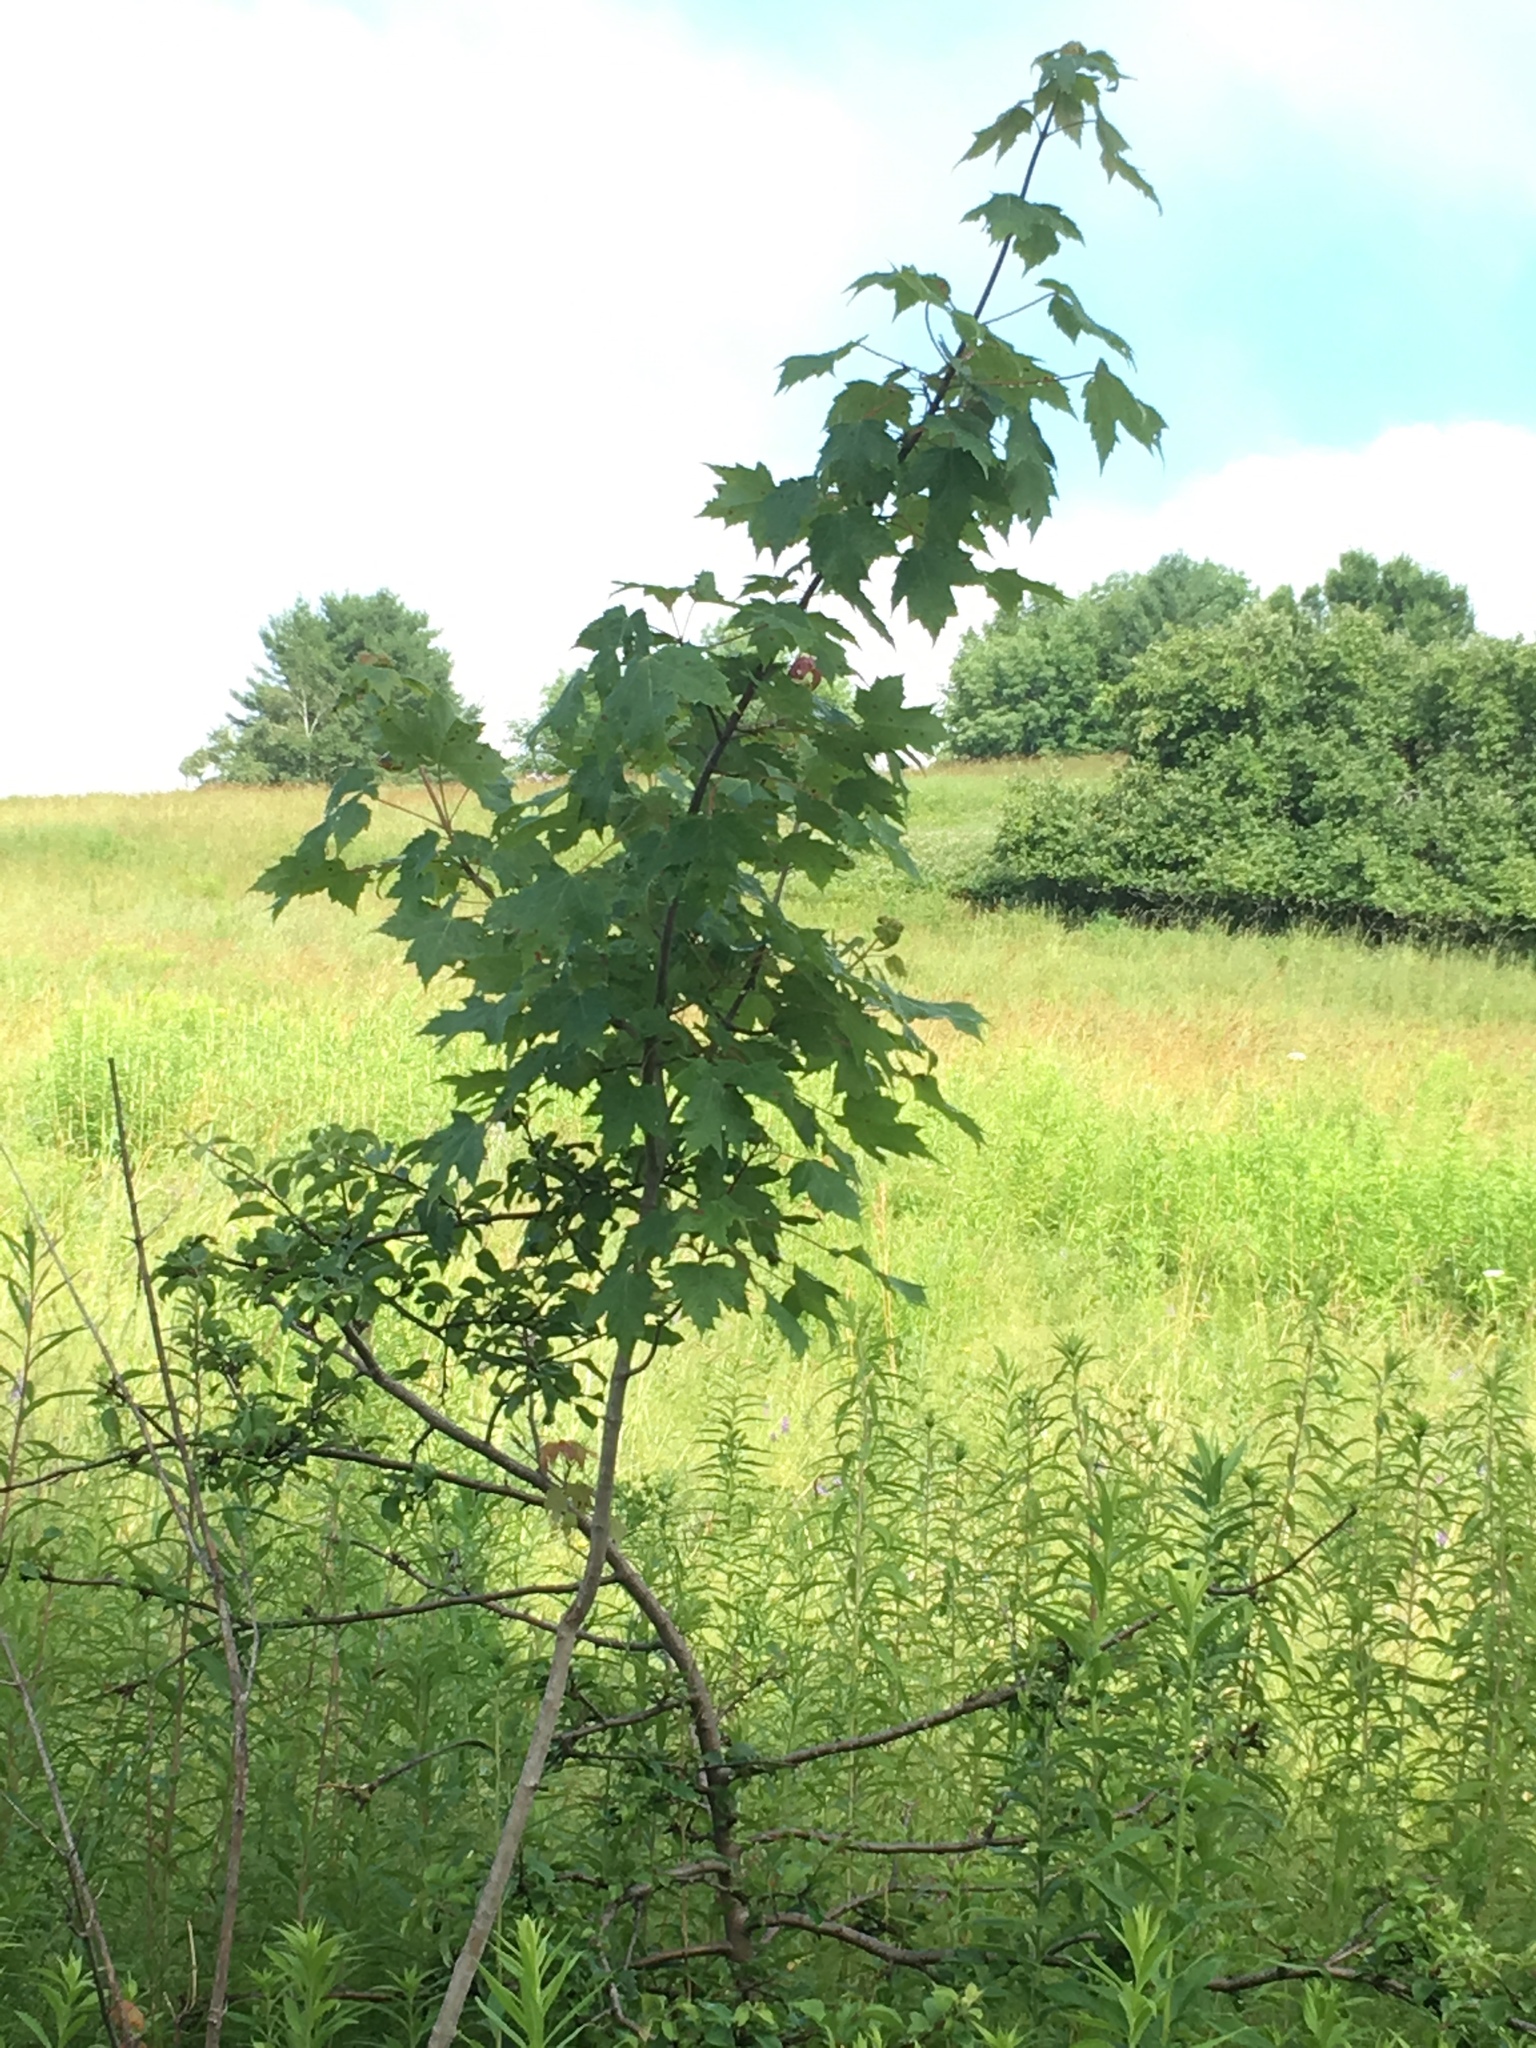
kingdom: Plantae
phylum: Tracheophyta
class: Magnoliopsida
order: Sapindales
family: Sapindaceae
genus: Acer
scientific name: Acer rubrum
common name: Red maple
